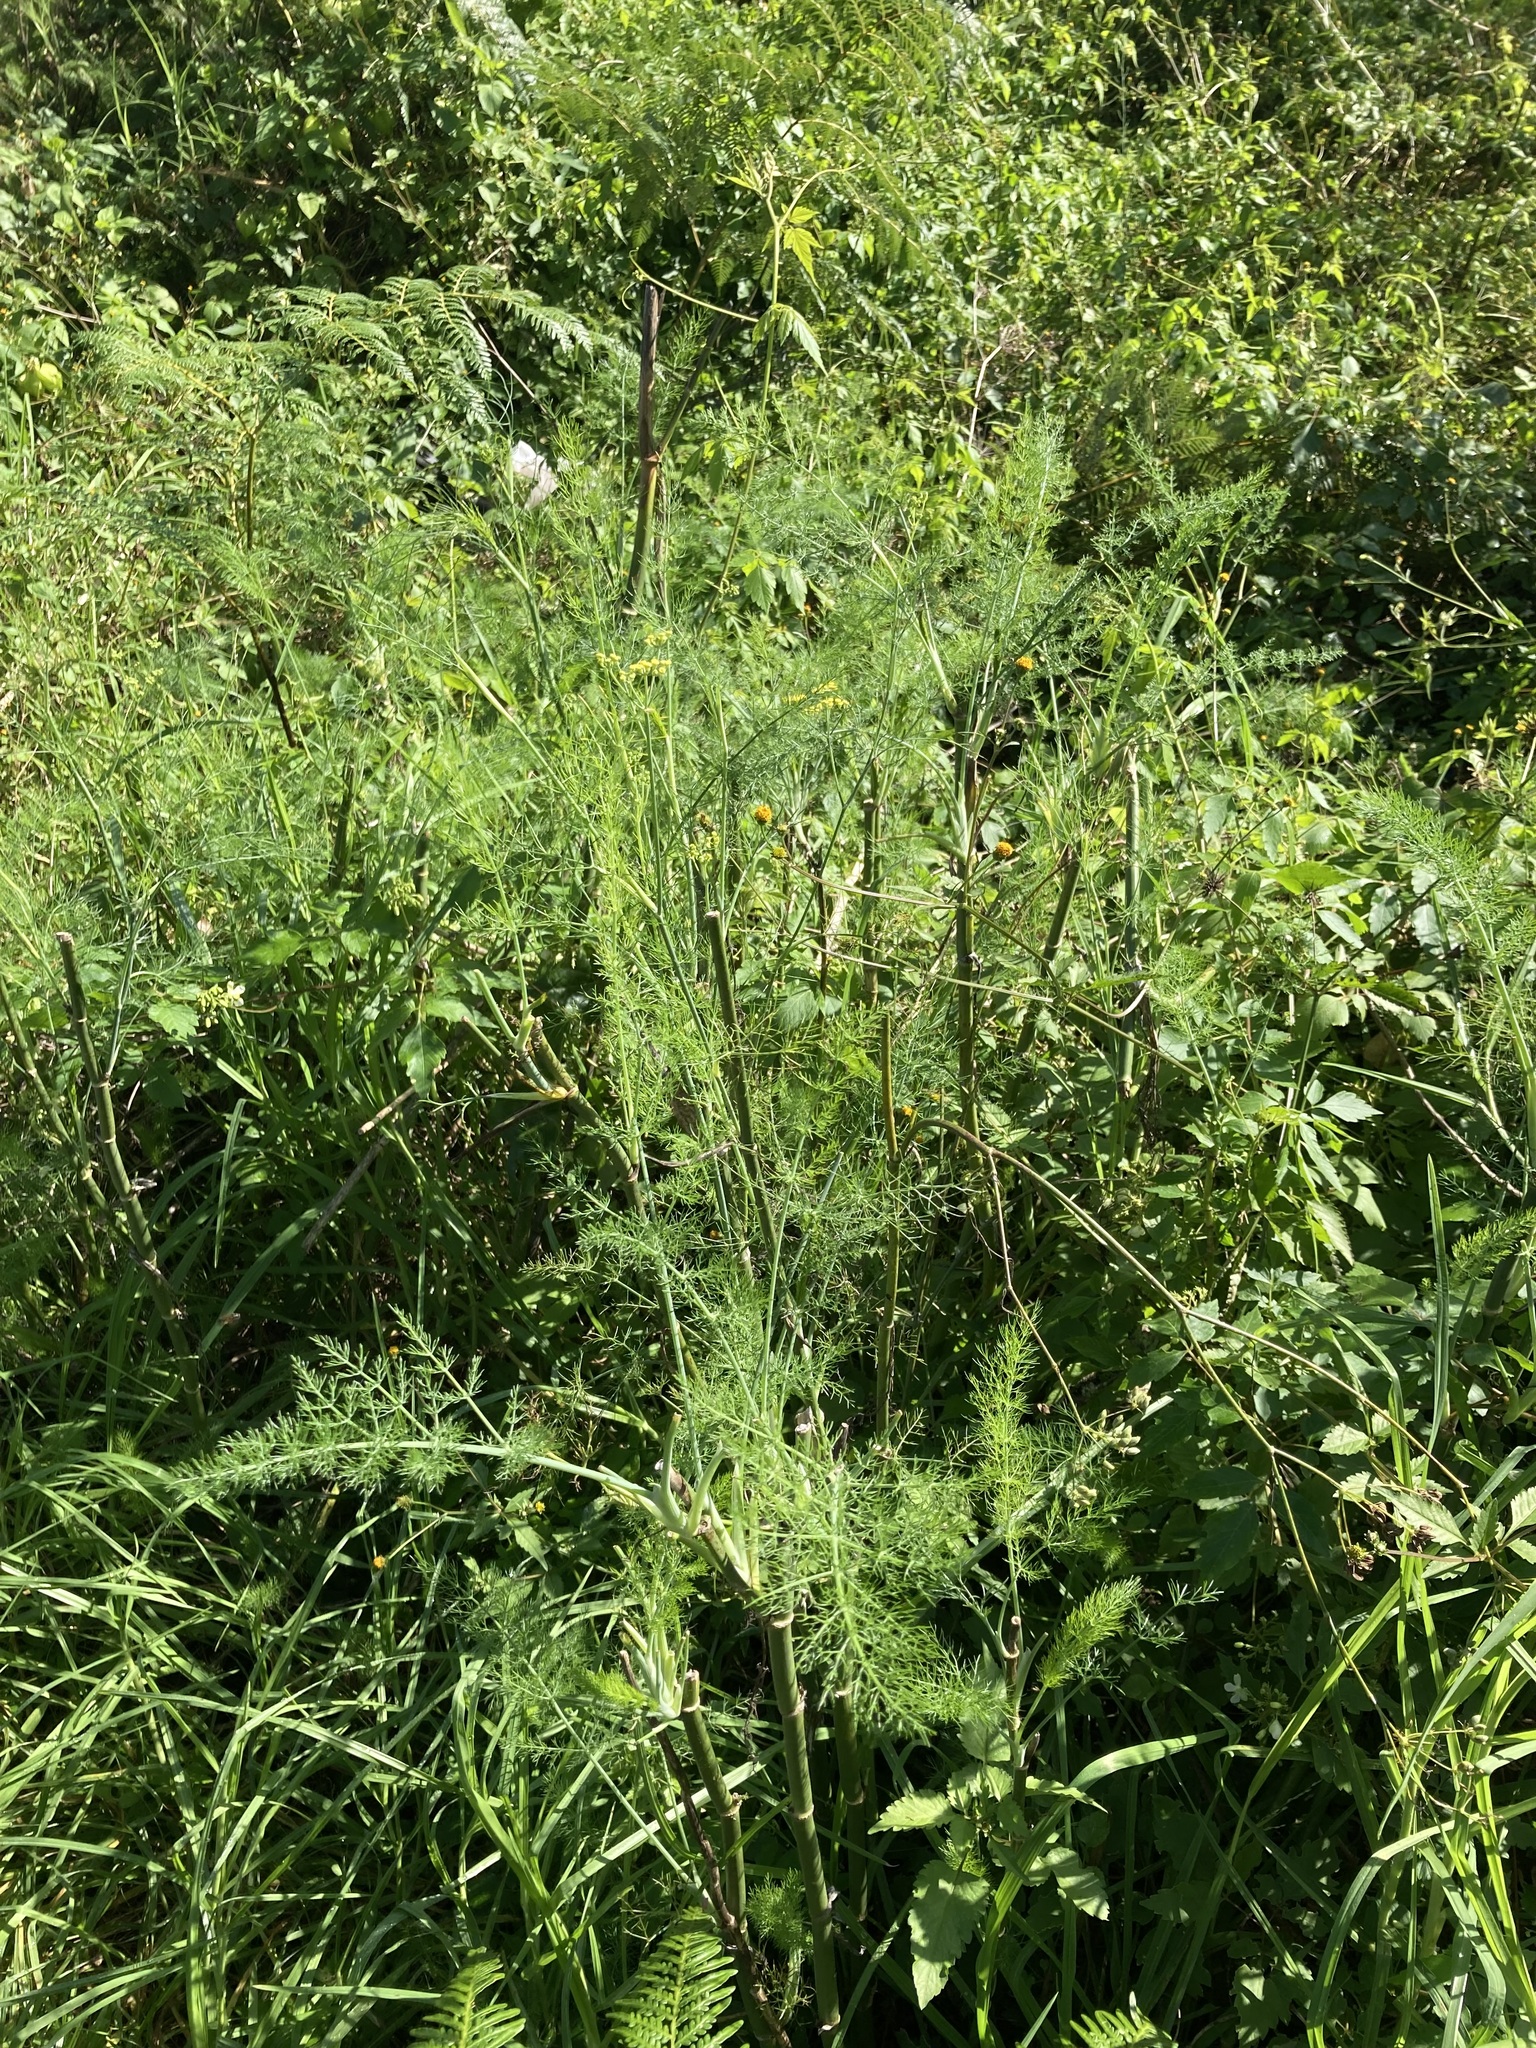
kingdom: Plantae
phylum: Tracheophyta
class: Magnoliopsida
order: Apiales
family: Apiaceae
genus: Foeniculum
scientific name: Foeniculum vulgare
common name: Fennel
